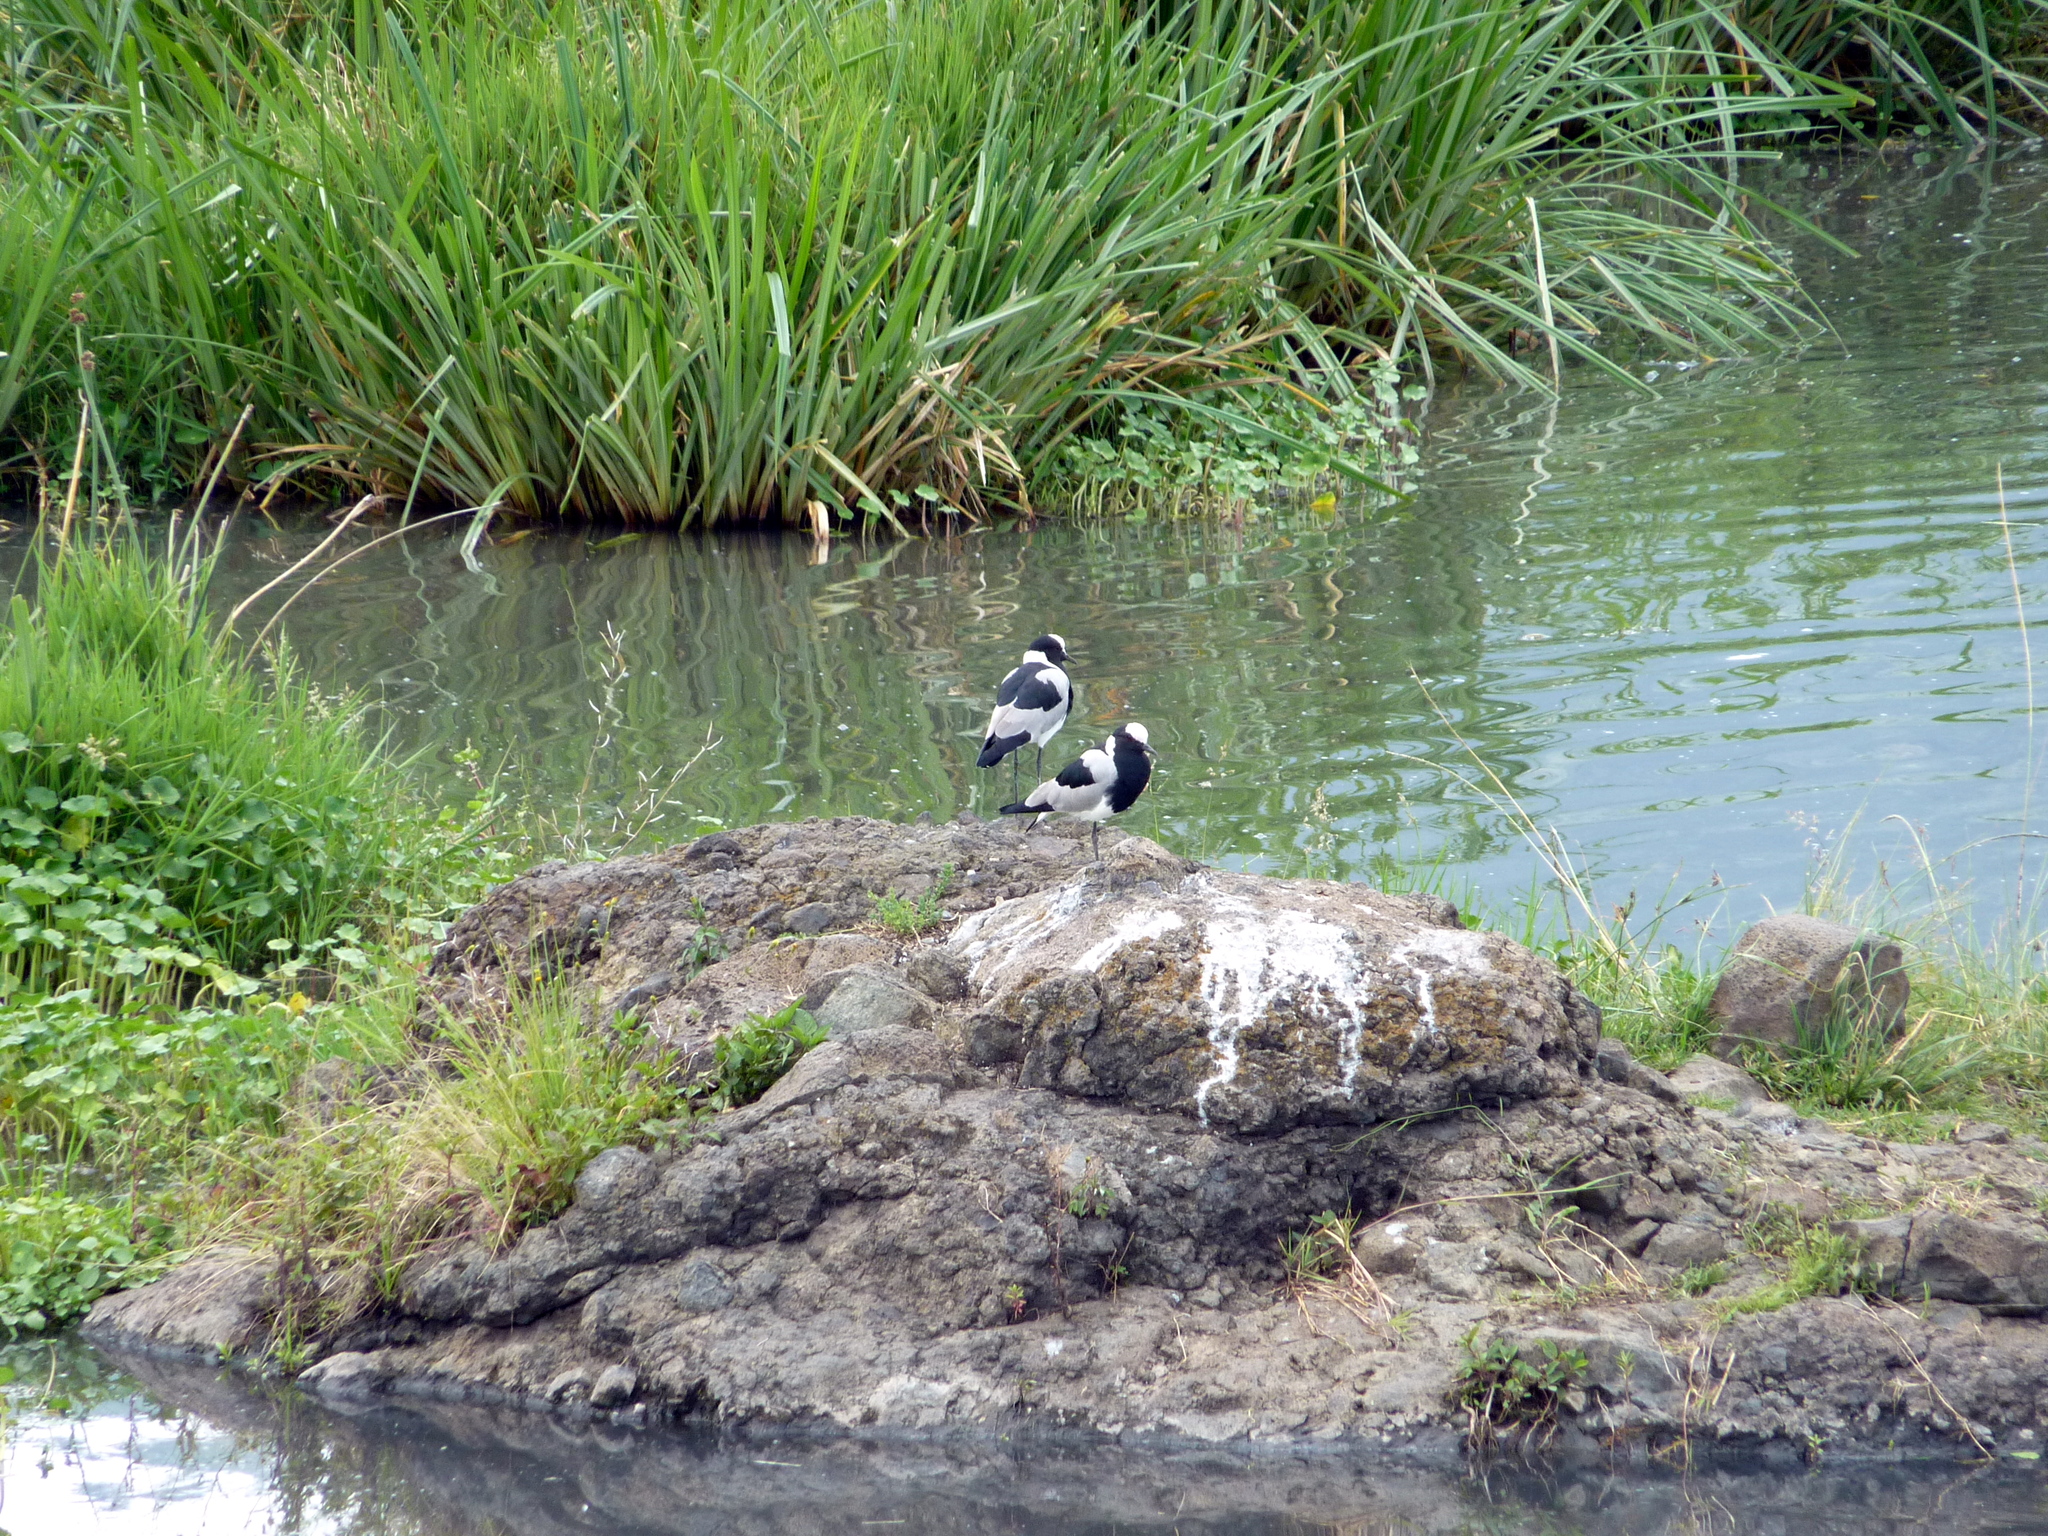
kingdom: Animalia
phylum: Chordata
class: Aves
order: Charadriiformes
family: Charadriidae
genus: Vanellus
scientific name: Vanellus armatus
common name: Blacksmith lapwing
